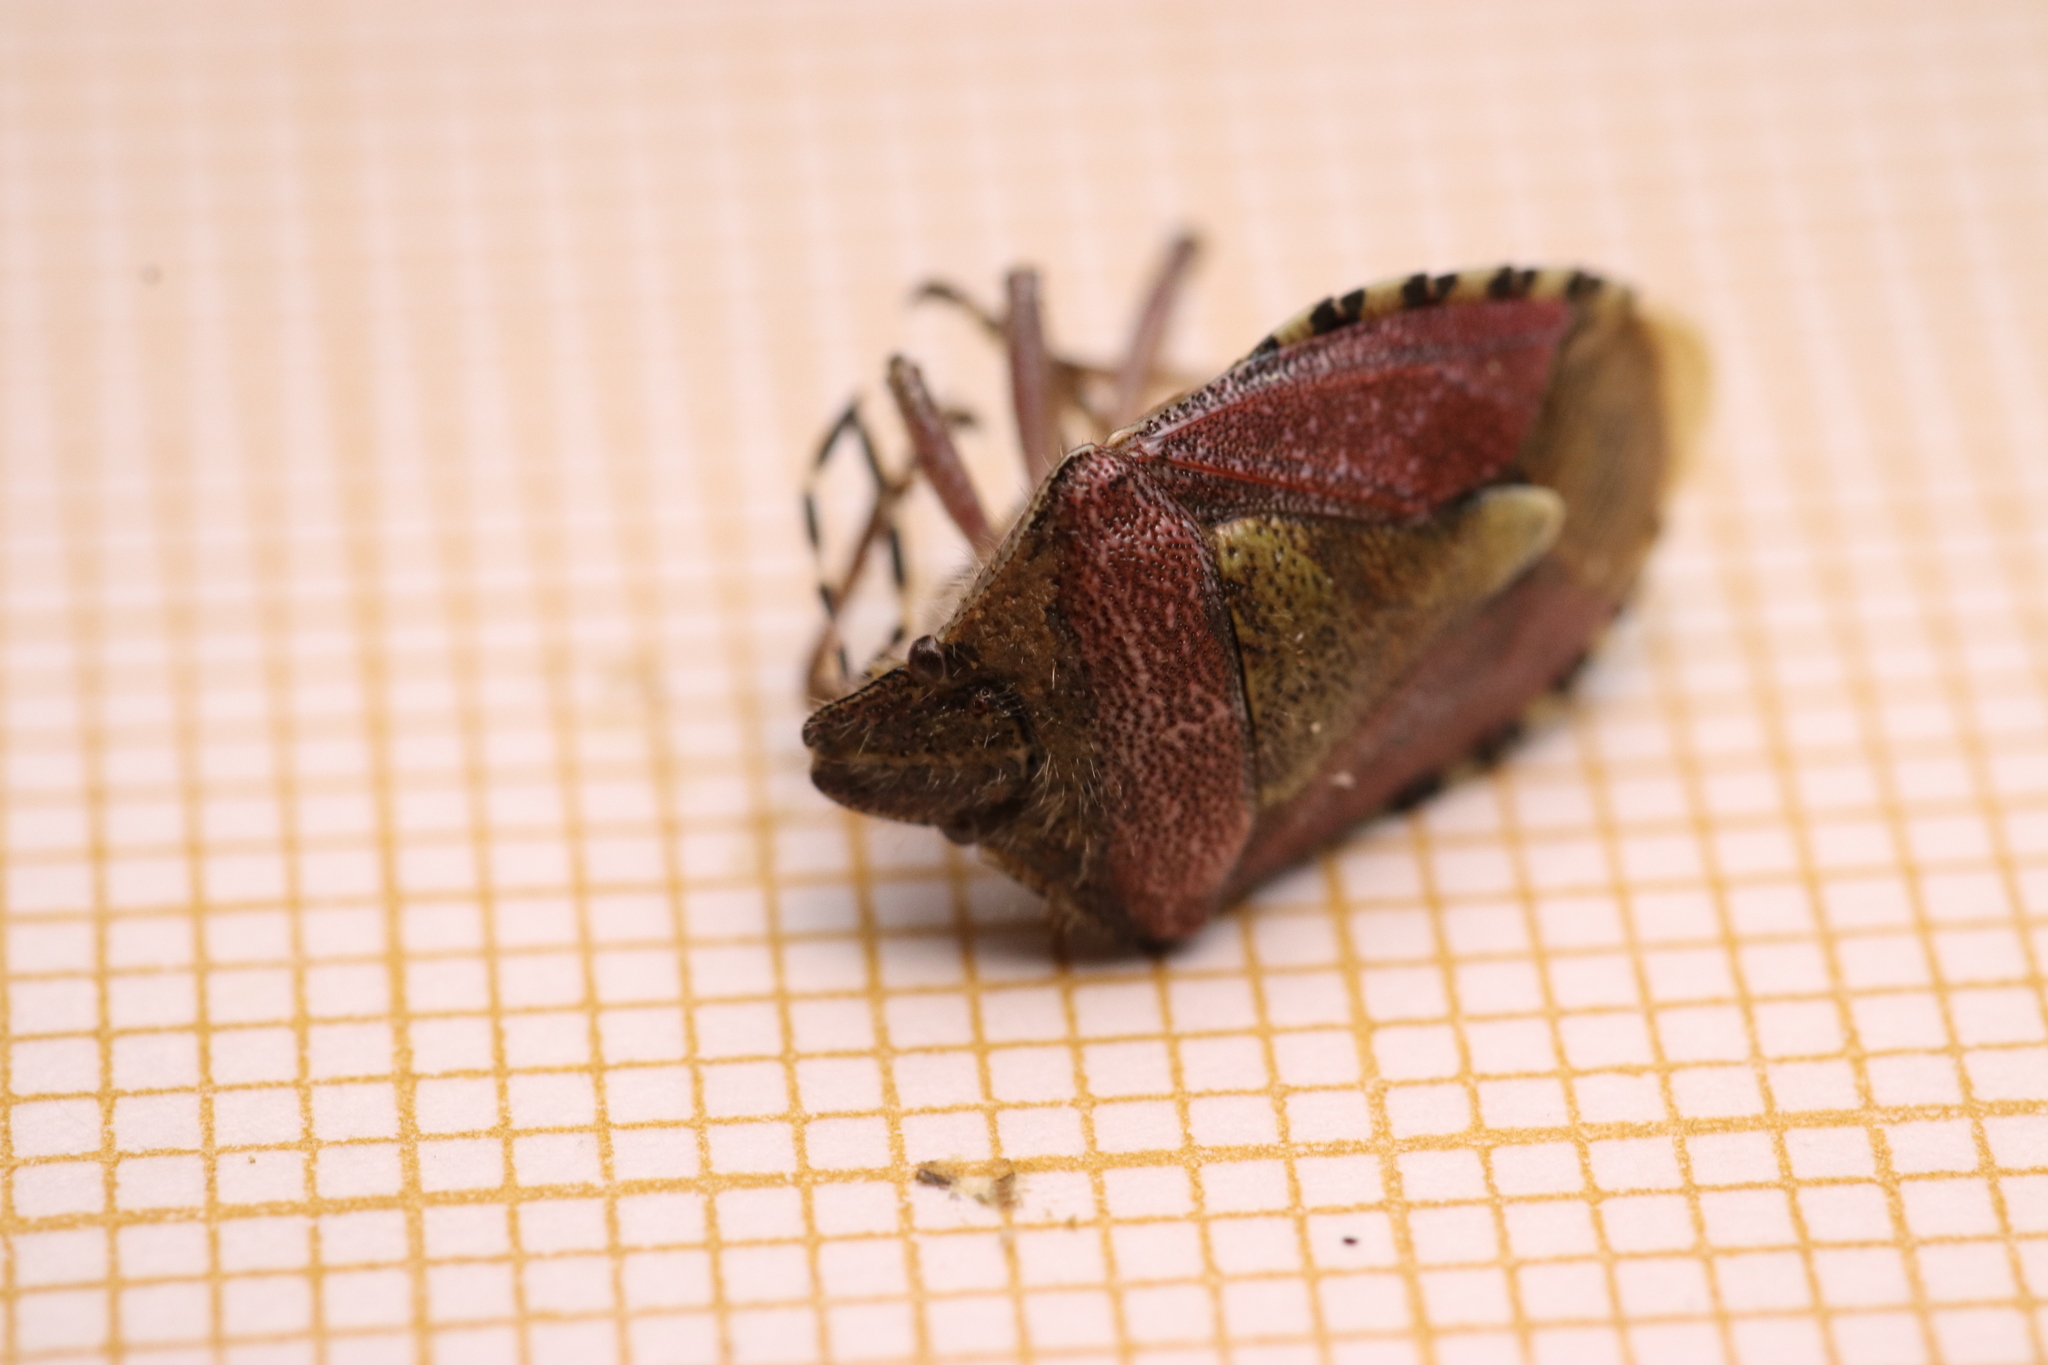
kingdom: Animalia
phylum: Arthropoda
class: Insecta
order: Hemiptera
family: Pentatomidae
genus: Dolycoris
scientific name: Dolycoris baccarum
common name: Sloe bug
